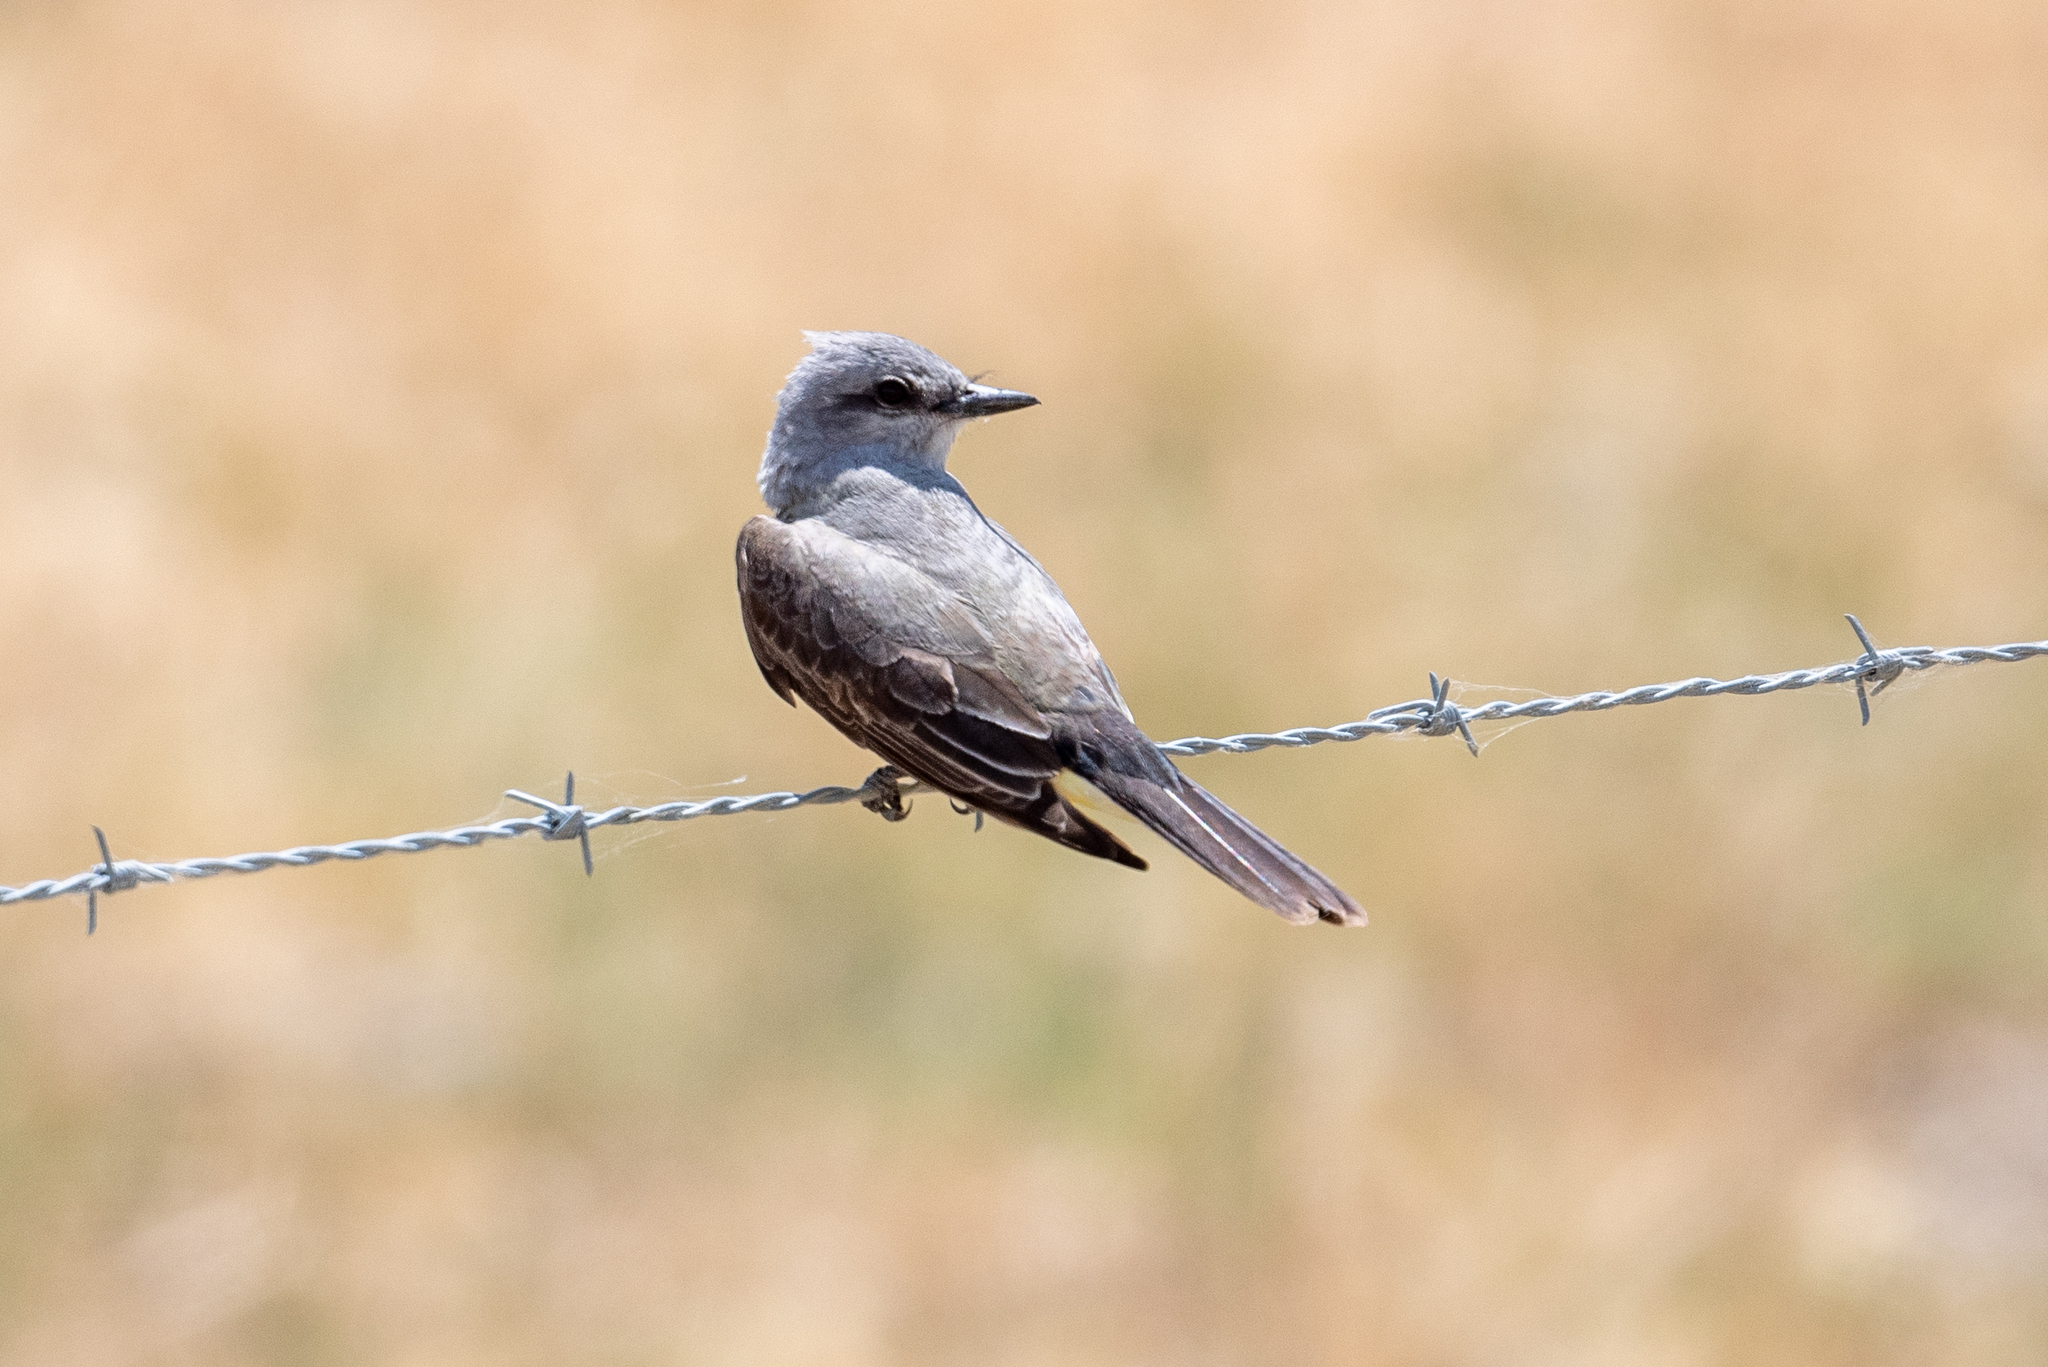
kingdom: Animalia
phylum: Chordata
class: Aves
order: Passeriformes
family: Tyrannidae
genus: Tyrannus
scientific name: Tyrannus verticalis
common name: Western kingbird
